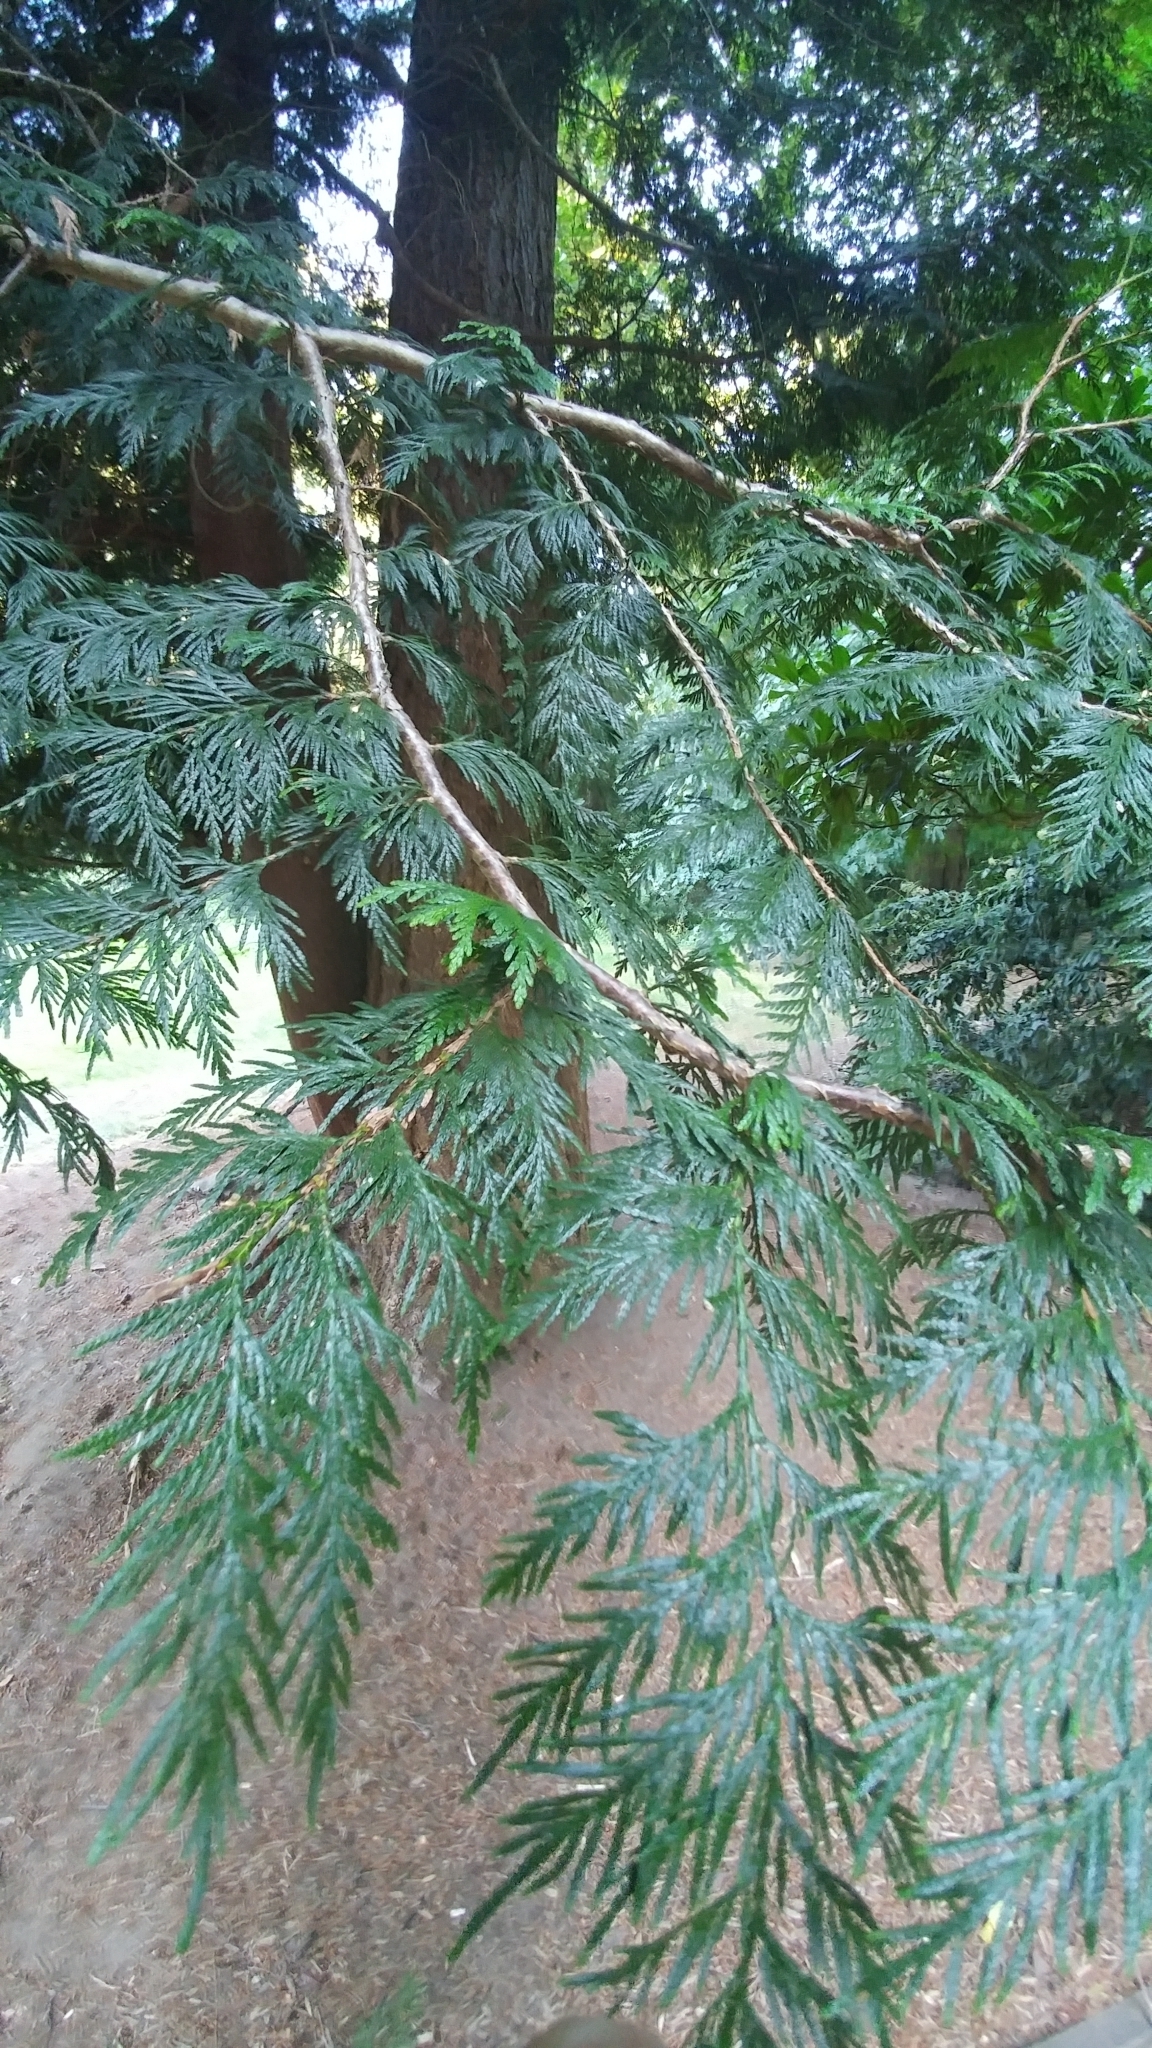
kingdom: Plantae
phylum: Tracheophyta
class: Pinopsida
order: Pinales
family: Cupressaceae
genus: Thuja
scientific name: Thuja plicata
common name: Western red-cedar
